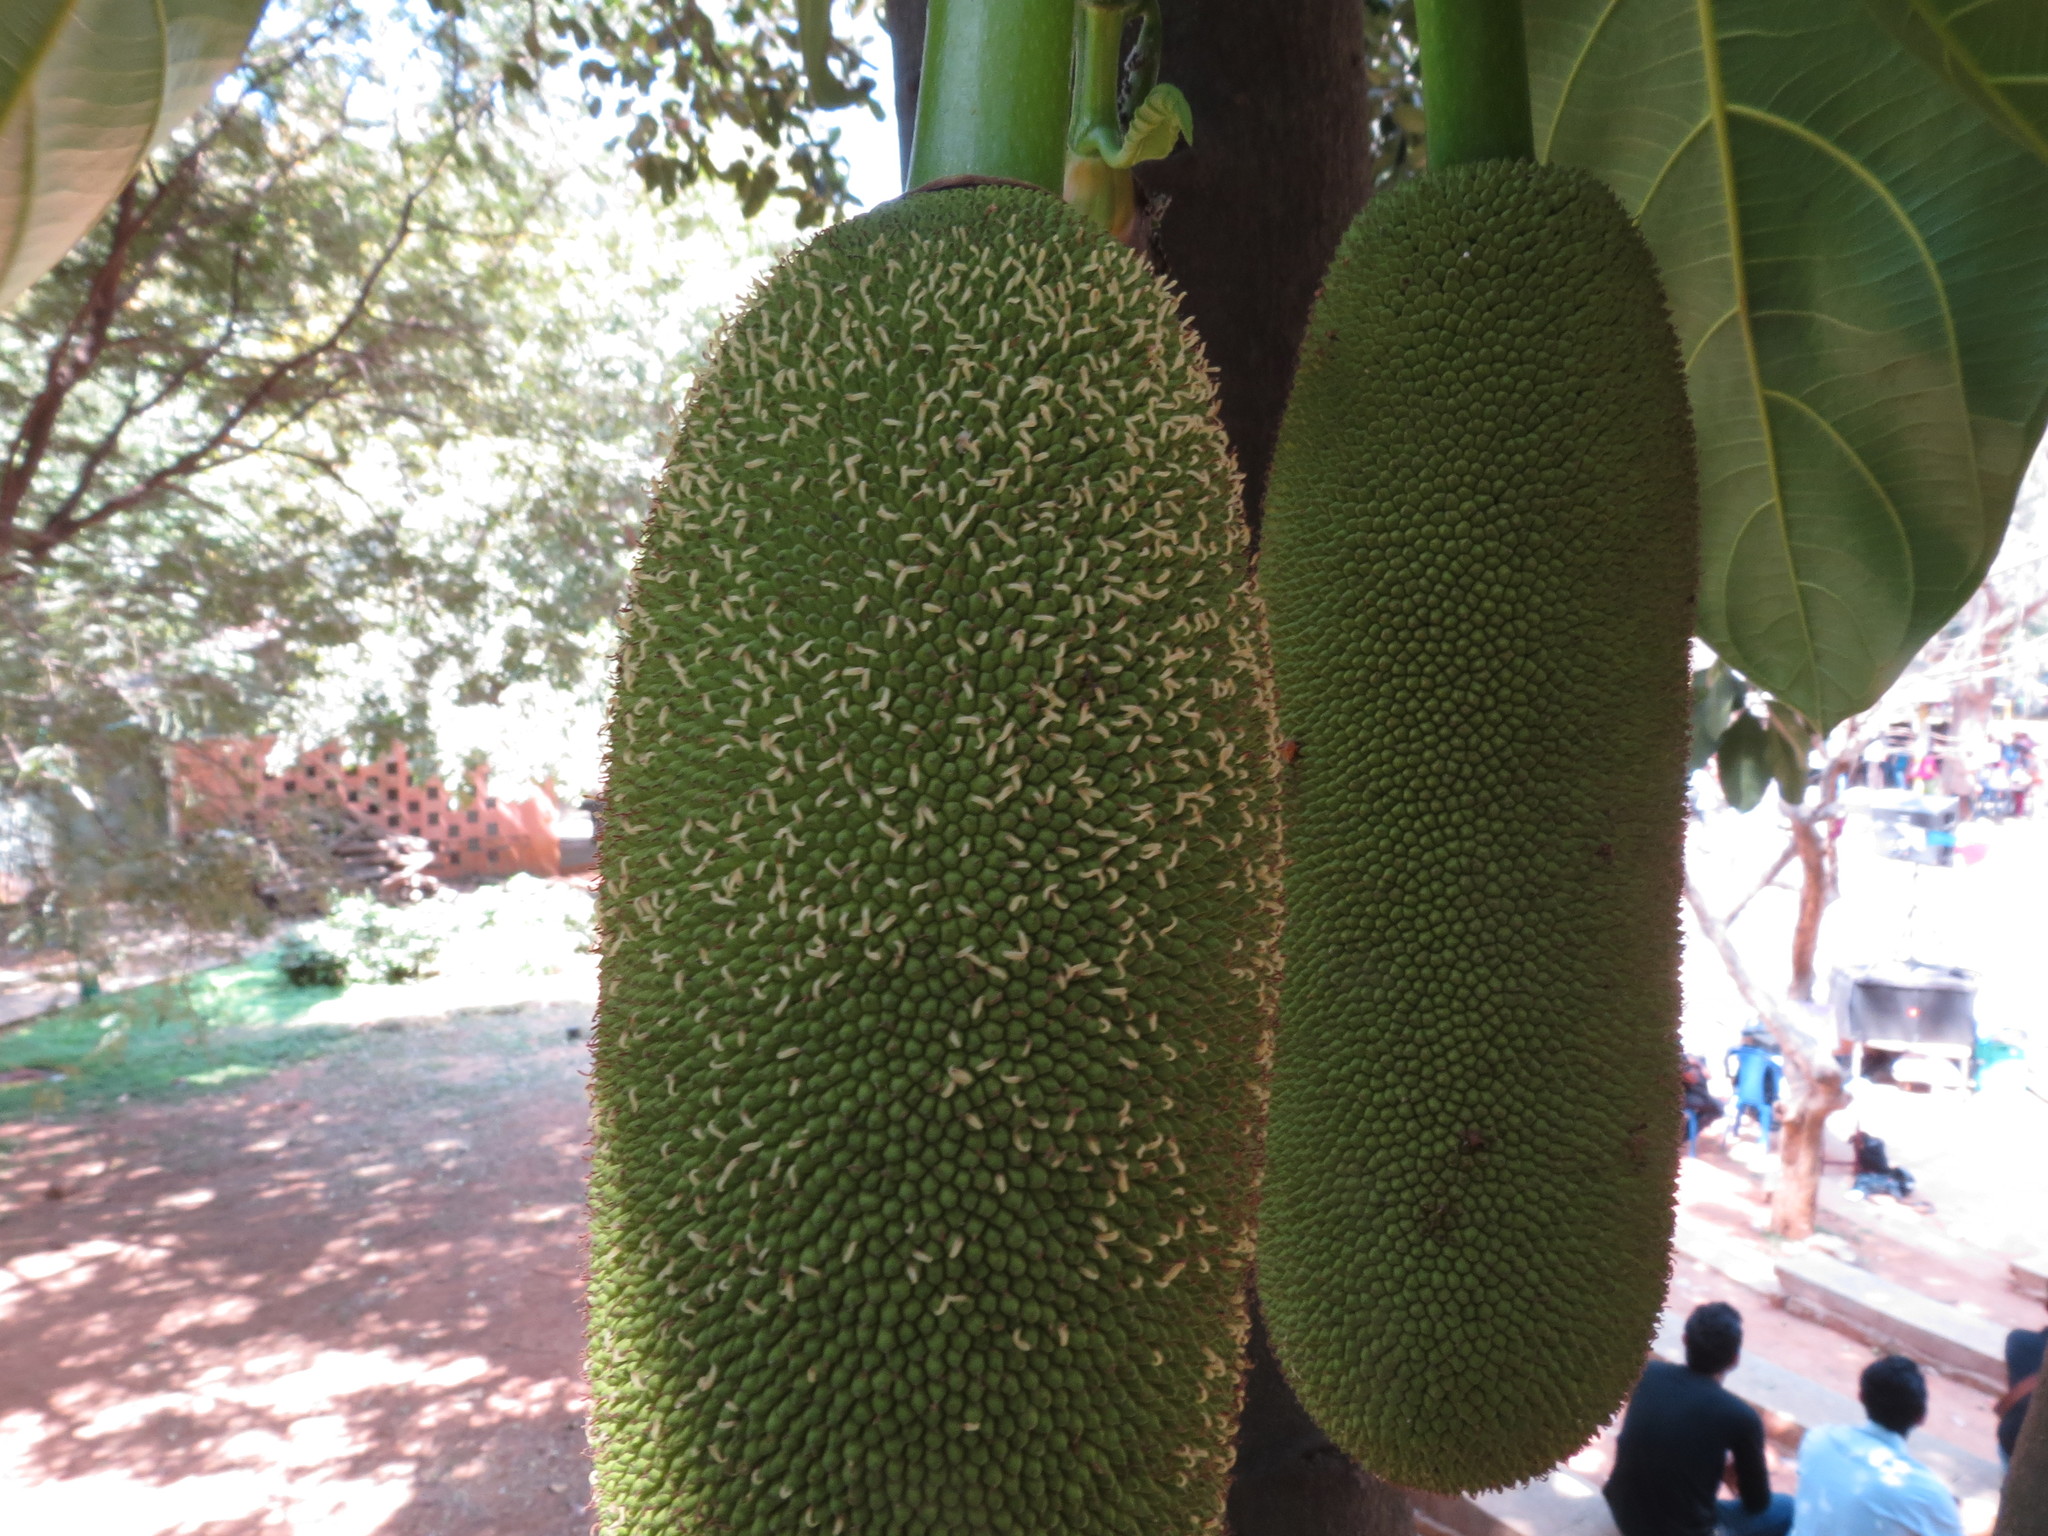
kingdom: Plantae
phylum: Tracheophyta
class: Magnoliopsida
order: Rosales
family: Moraceae
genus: Artocarpus
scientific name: Artocarpus heterophyllus
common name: Jackfruit
